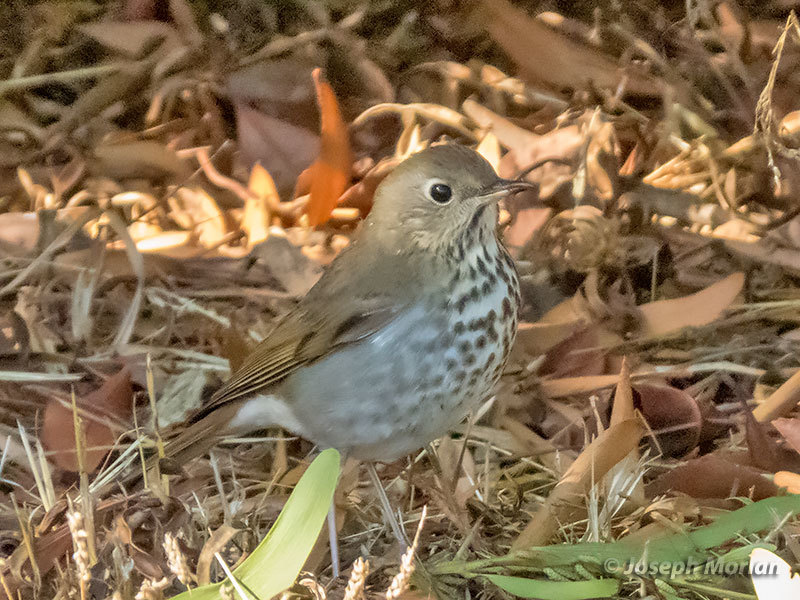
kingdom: Animalia
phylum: Chordata
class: Aves
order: Passeriformes
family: Turdidae
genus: Catharus
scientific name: Catharus guttatus
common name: Hermit thrush
